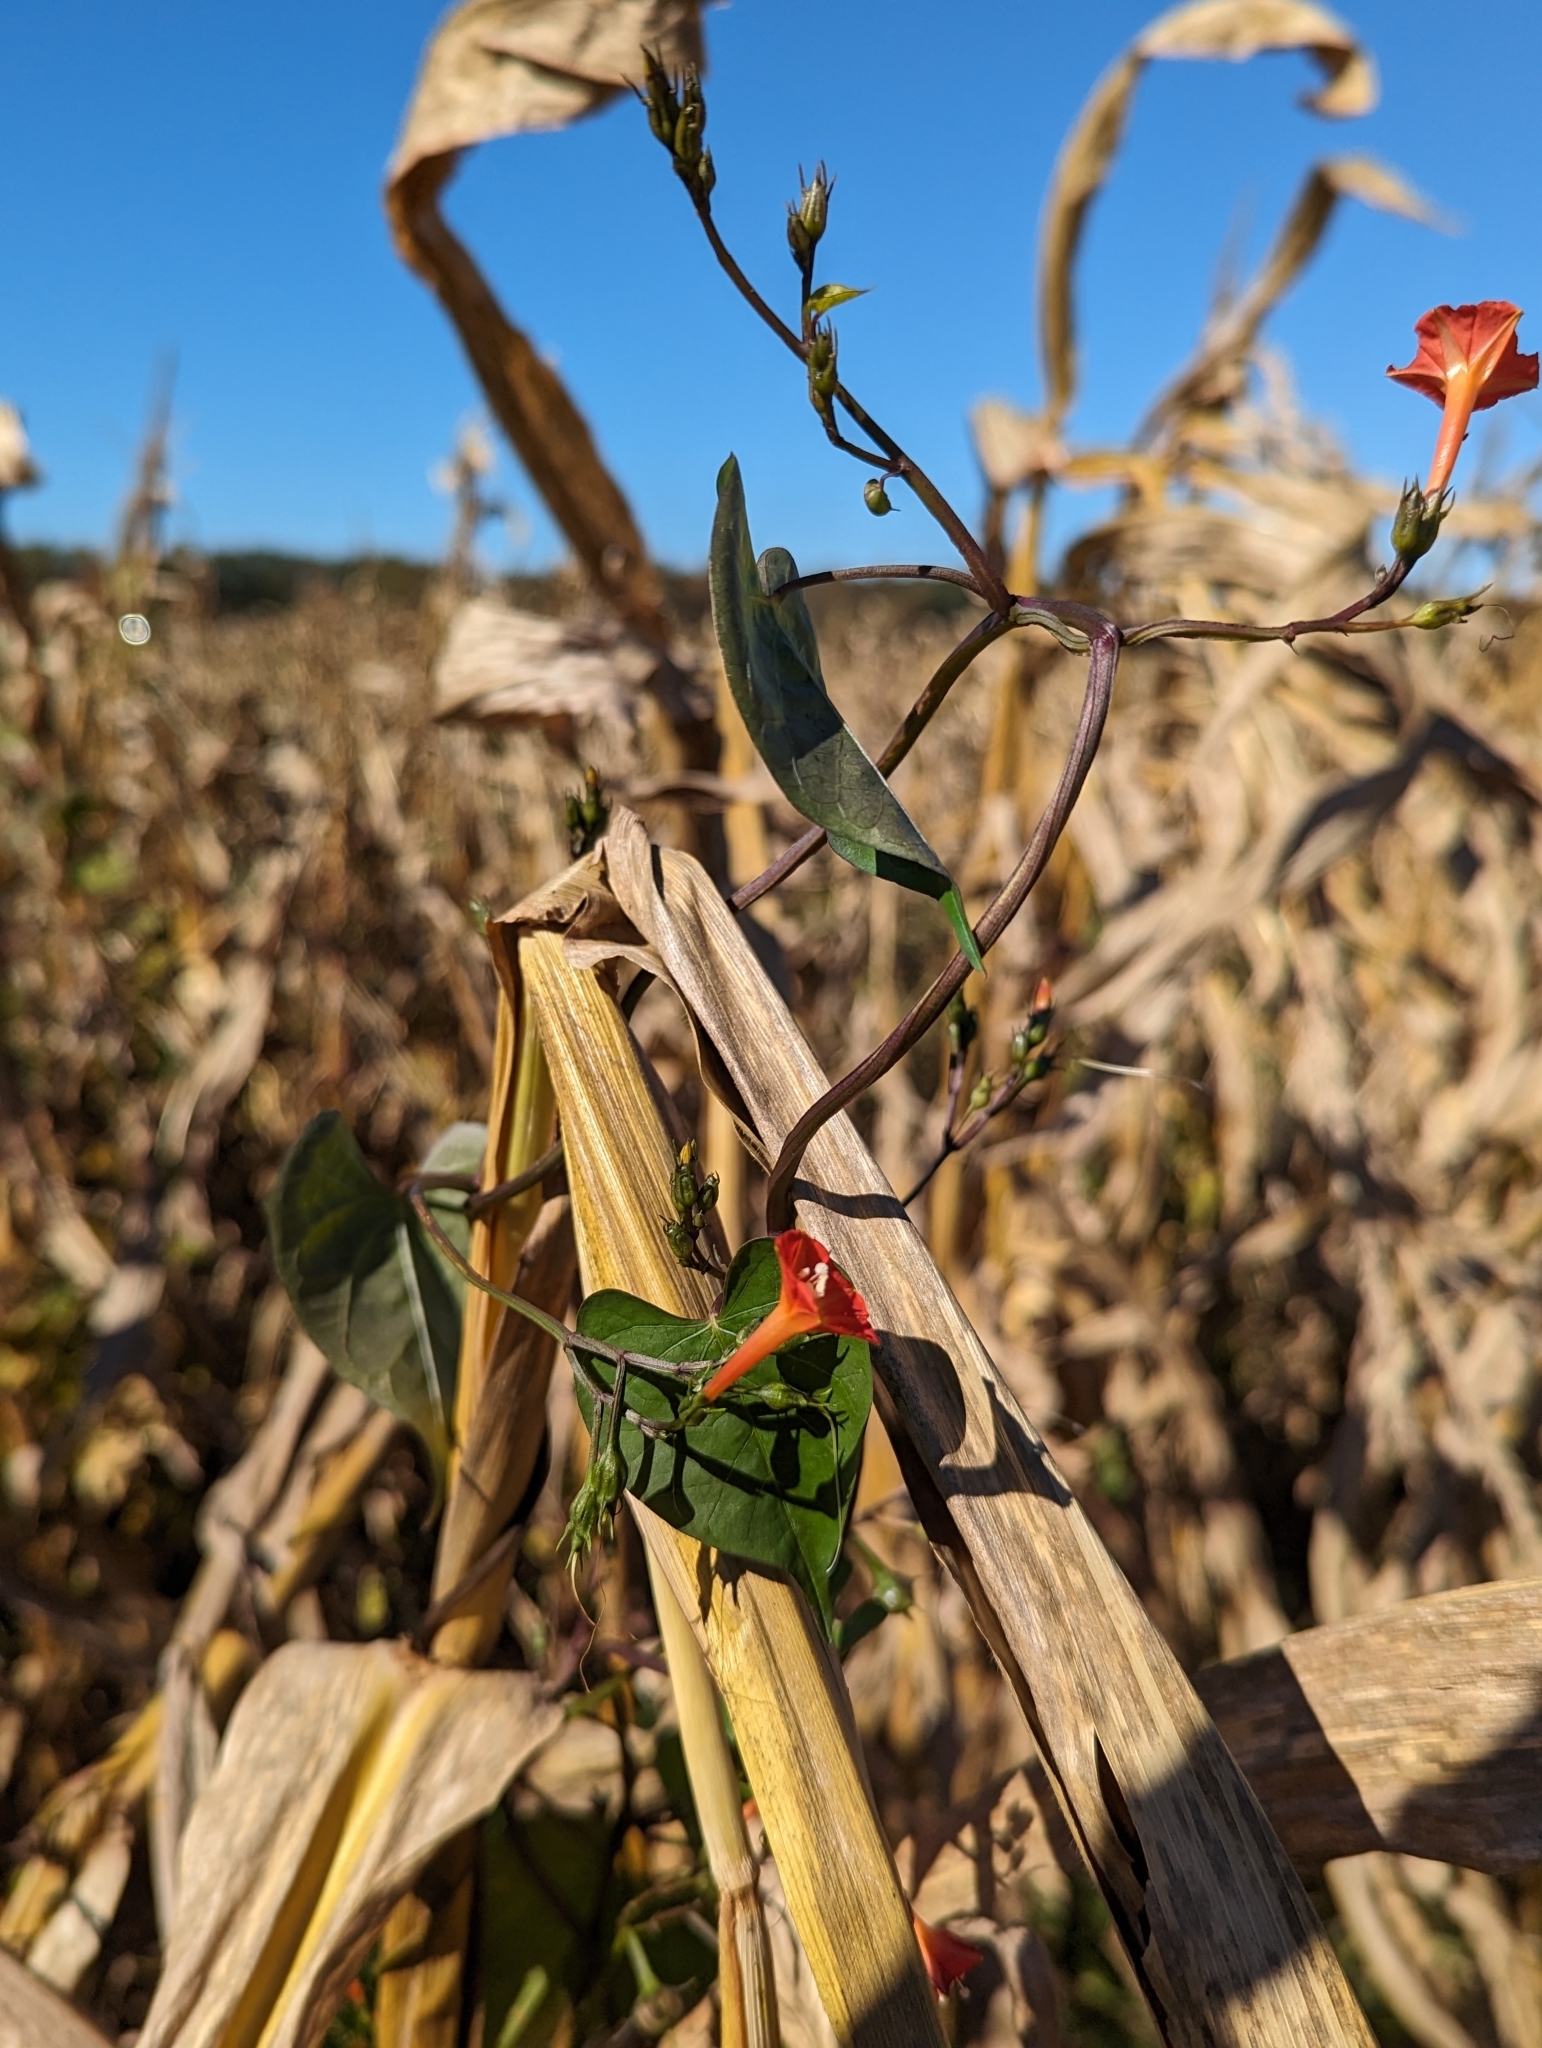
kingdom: Plantae
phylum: Tracheophyta
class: Magnoliopsida
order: Solanales
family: Convolvulaceae
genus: Ipomoea
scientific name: Ipomoea coccinea
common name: Red morning-glory
